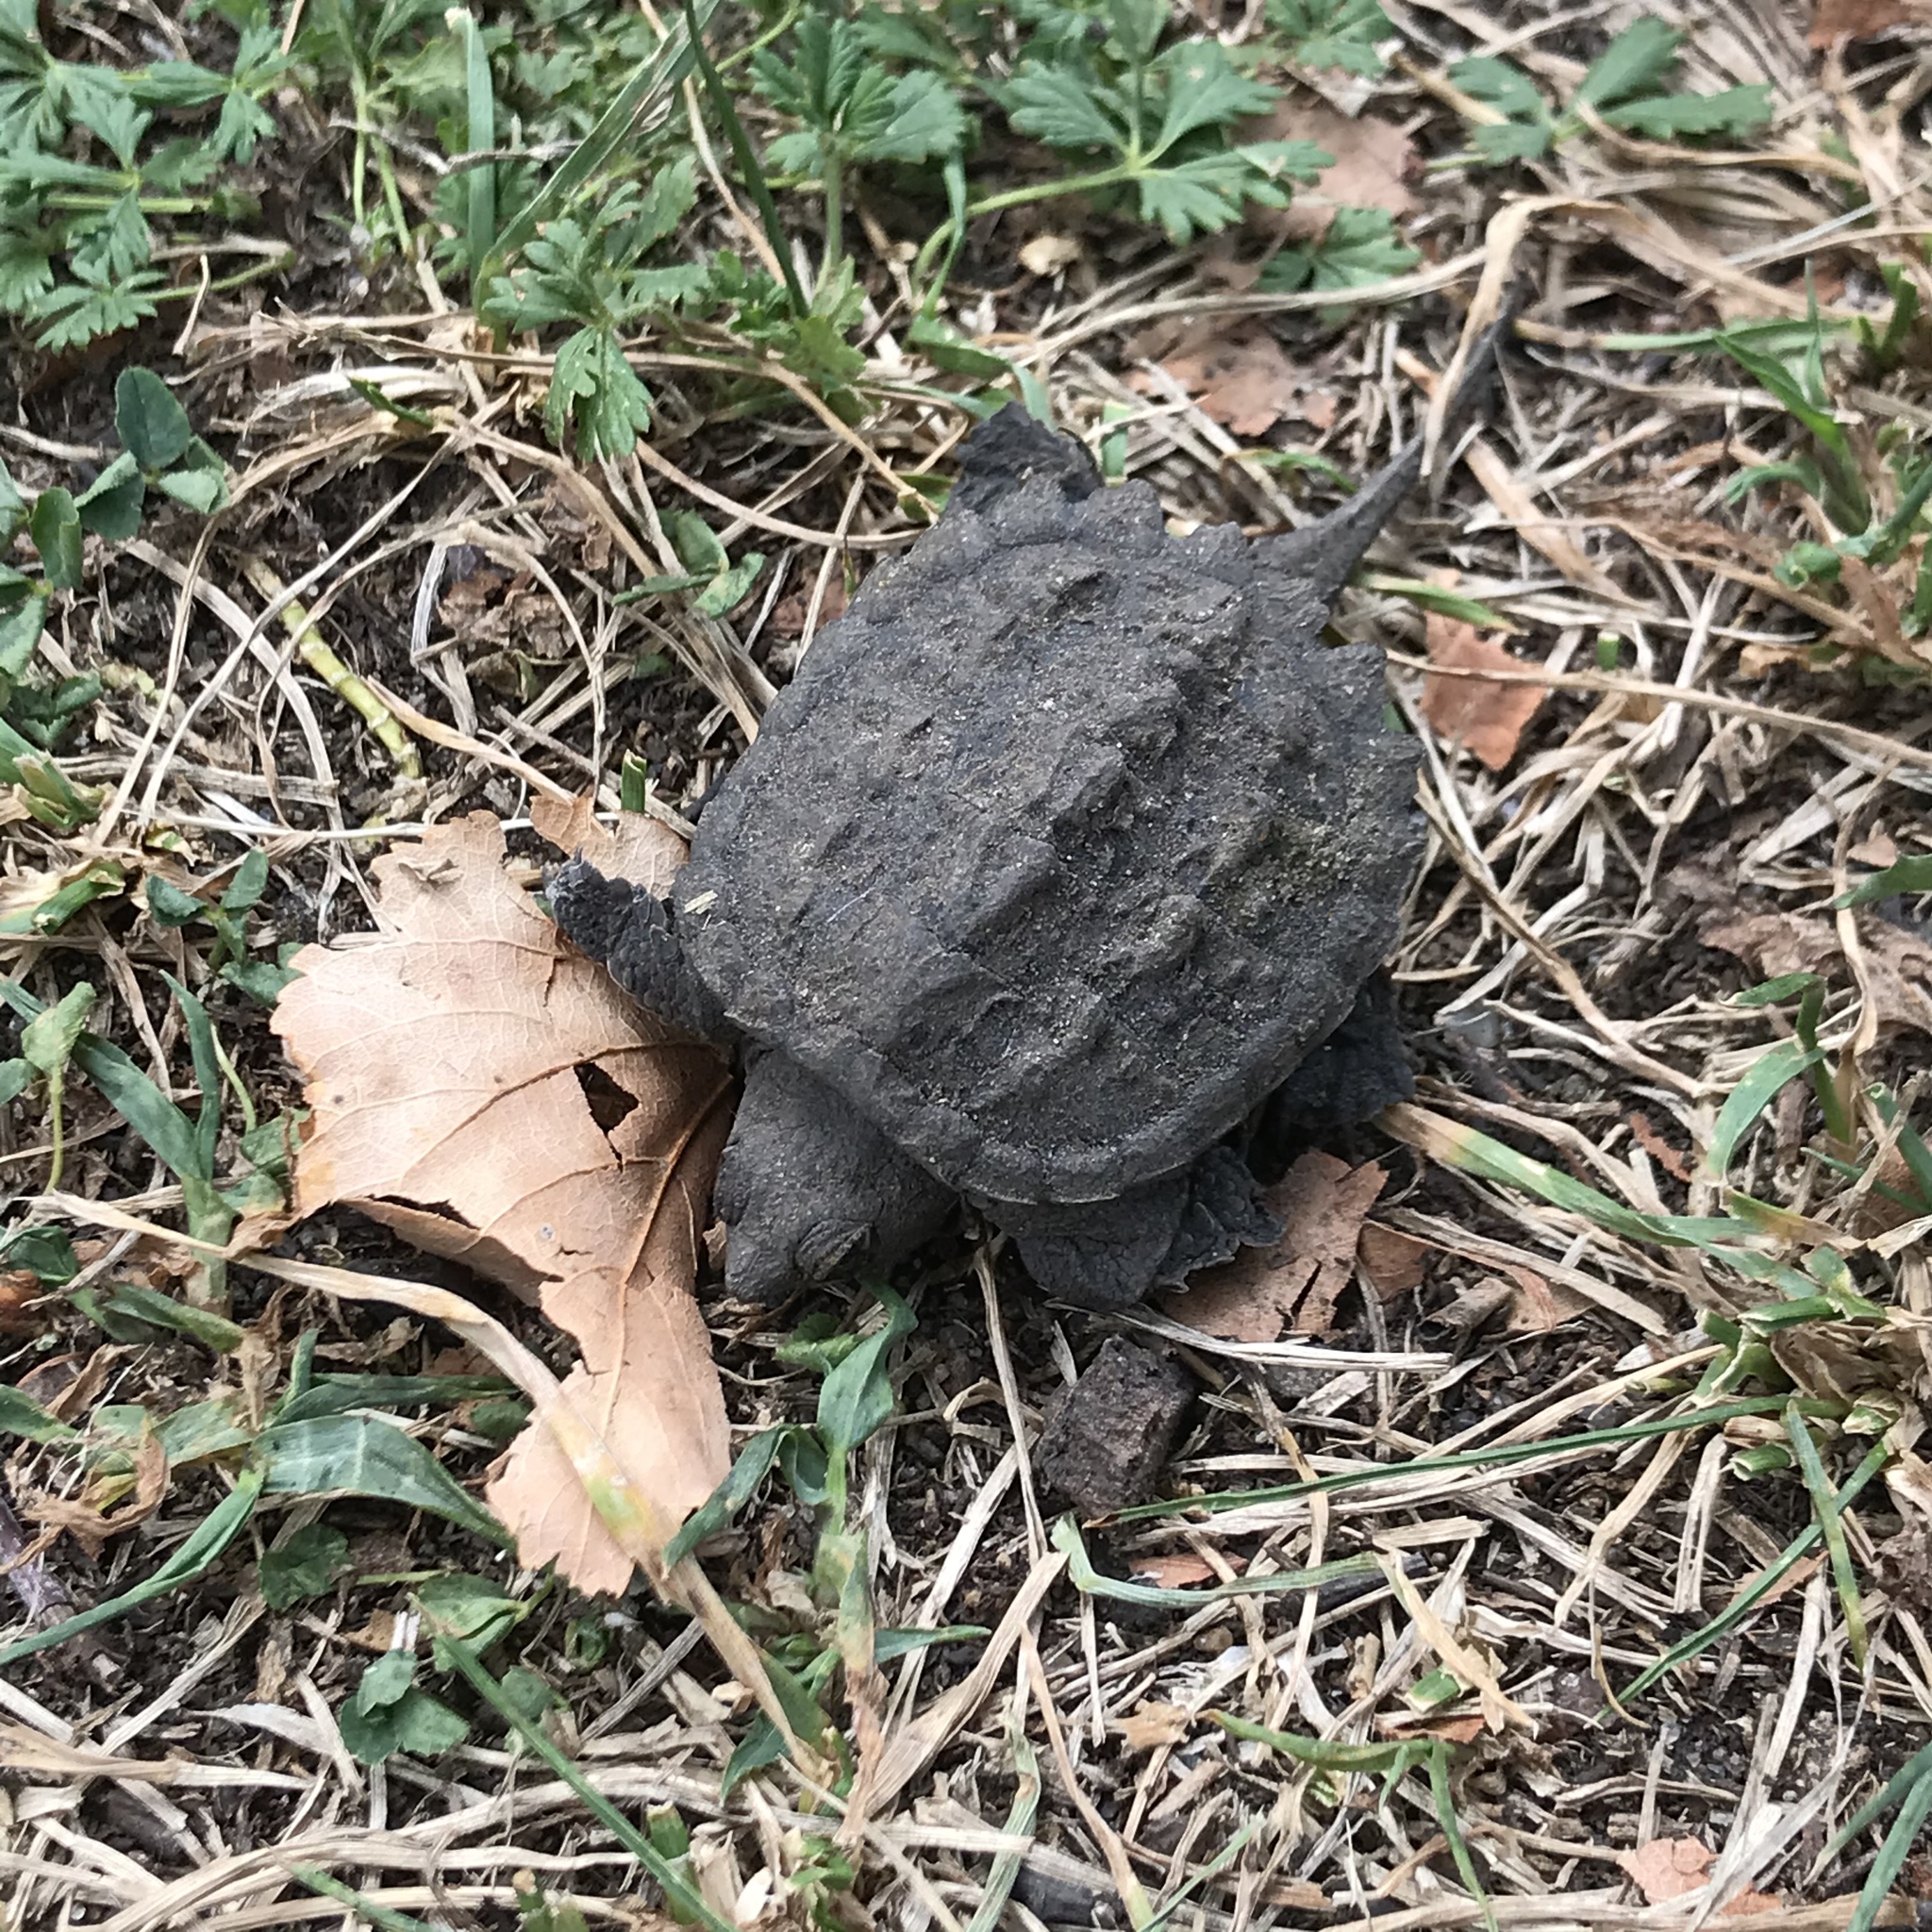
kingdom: Animalia
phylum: Chordata
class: Testudines
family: Chelydridae
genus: Chelydra
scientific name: Chelydra serpentina
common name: Common snapping turtle
